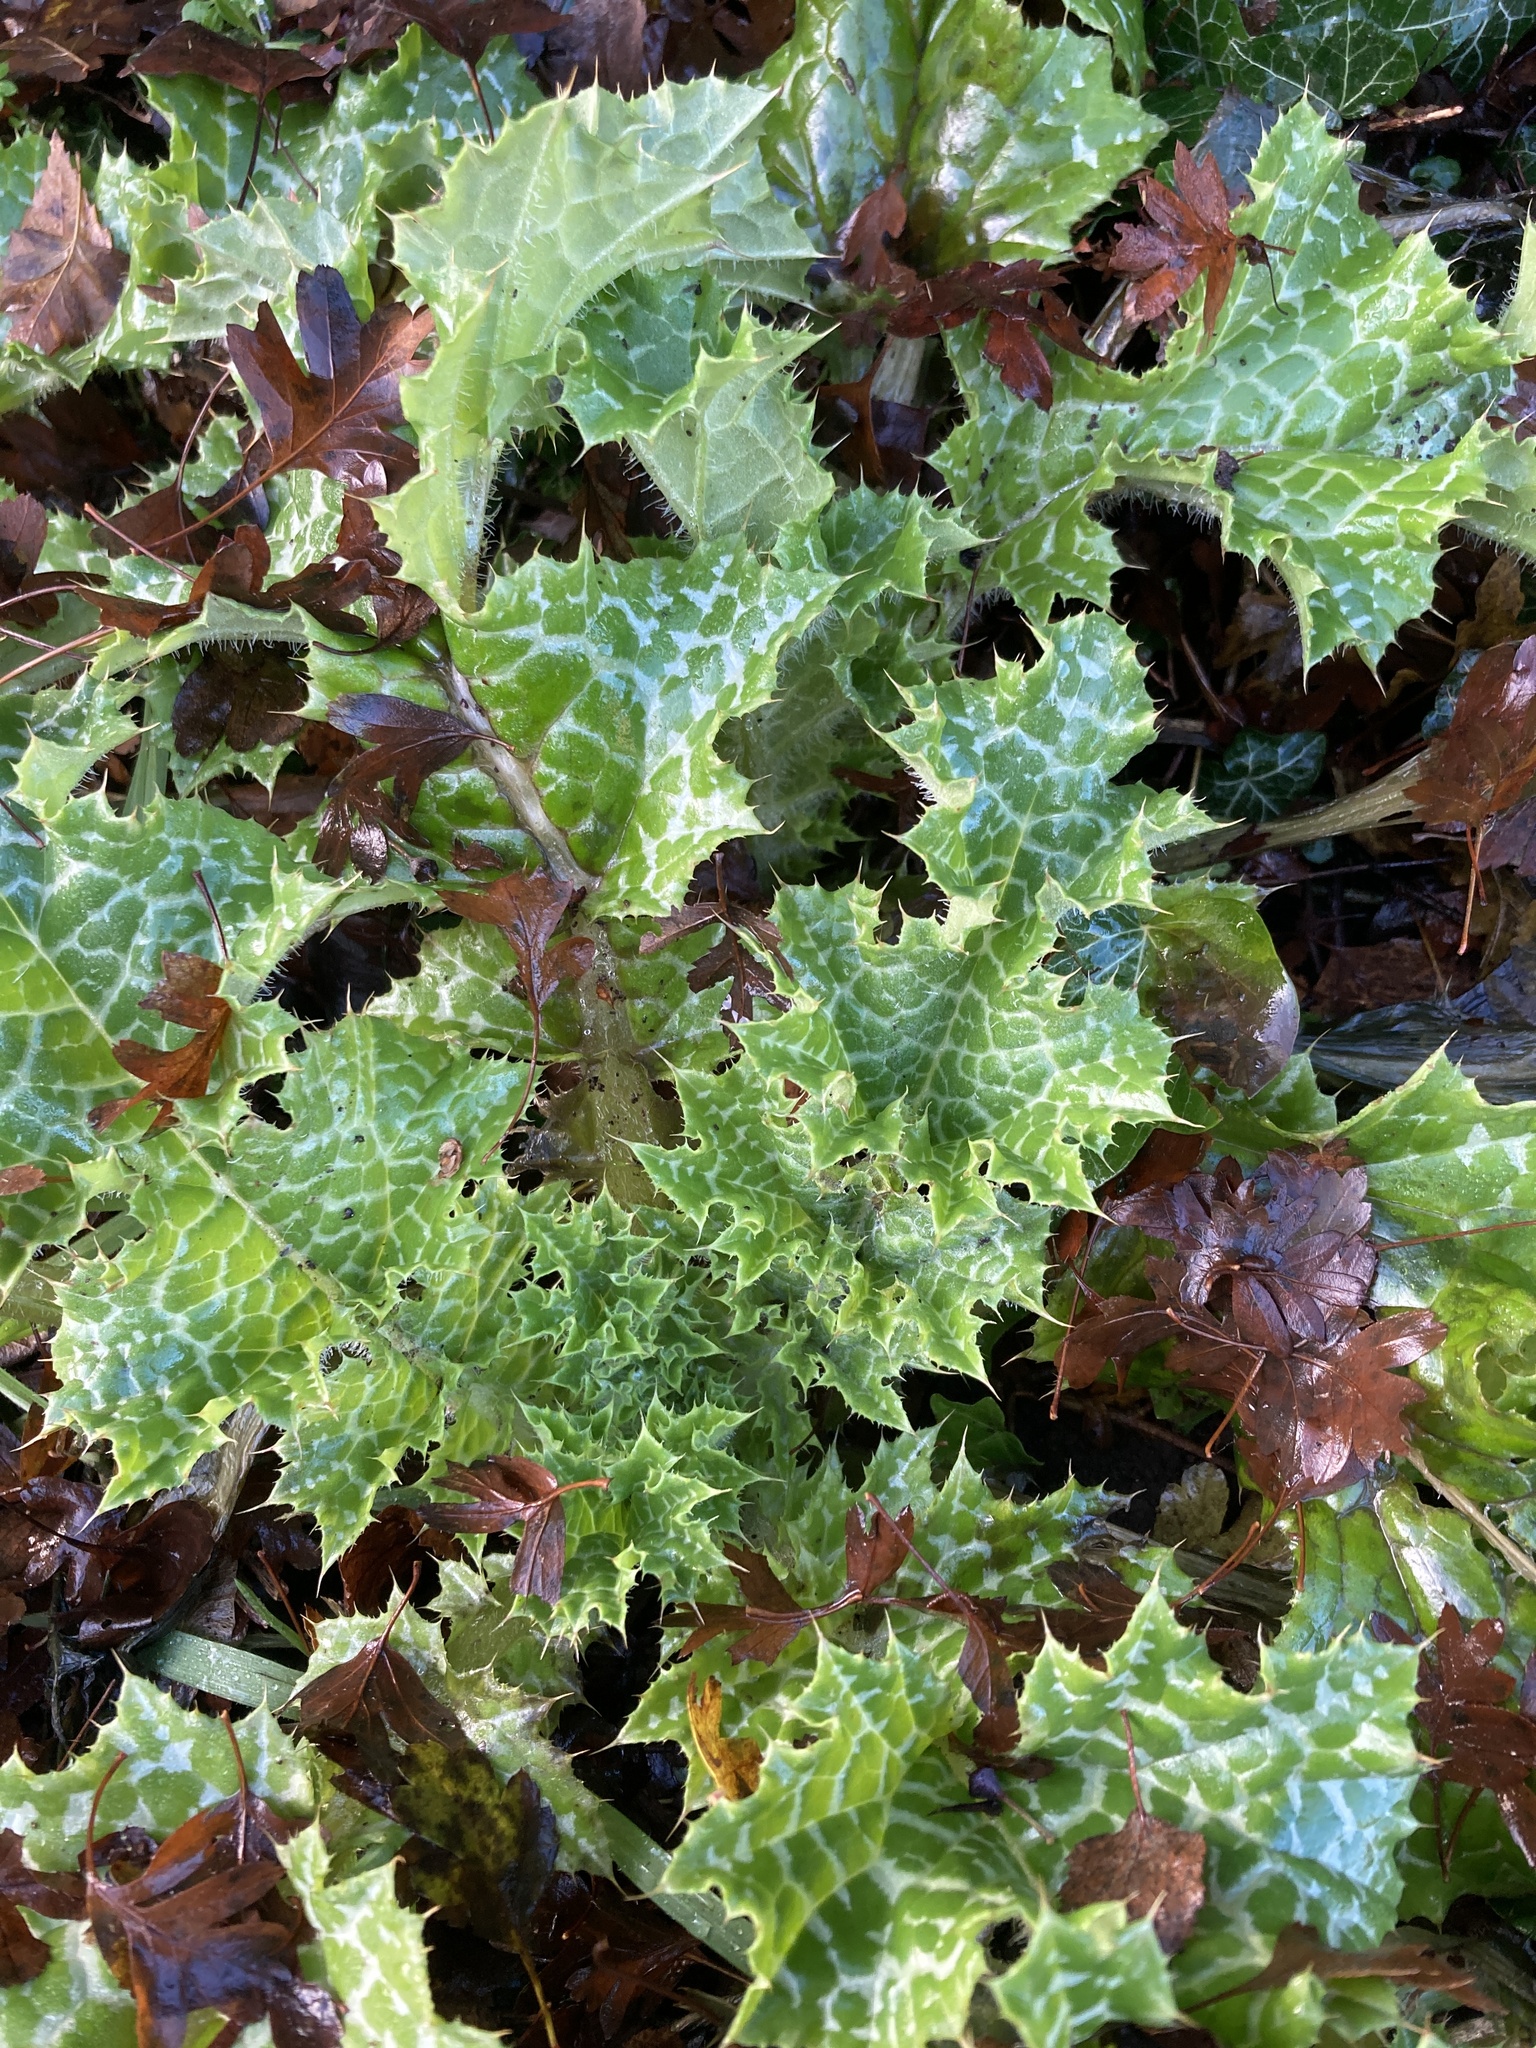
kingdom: Plantae
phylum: Tracheophyta
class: Magnoliopsida
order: Asterales
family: Asteraceae
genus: Silybum
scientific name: Silybum marianum
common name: Milk thistle
